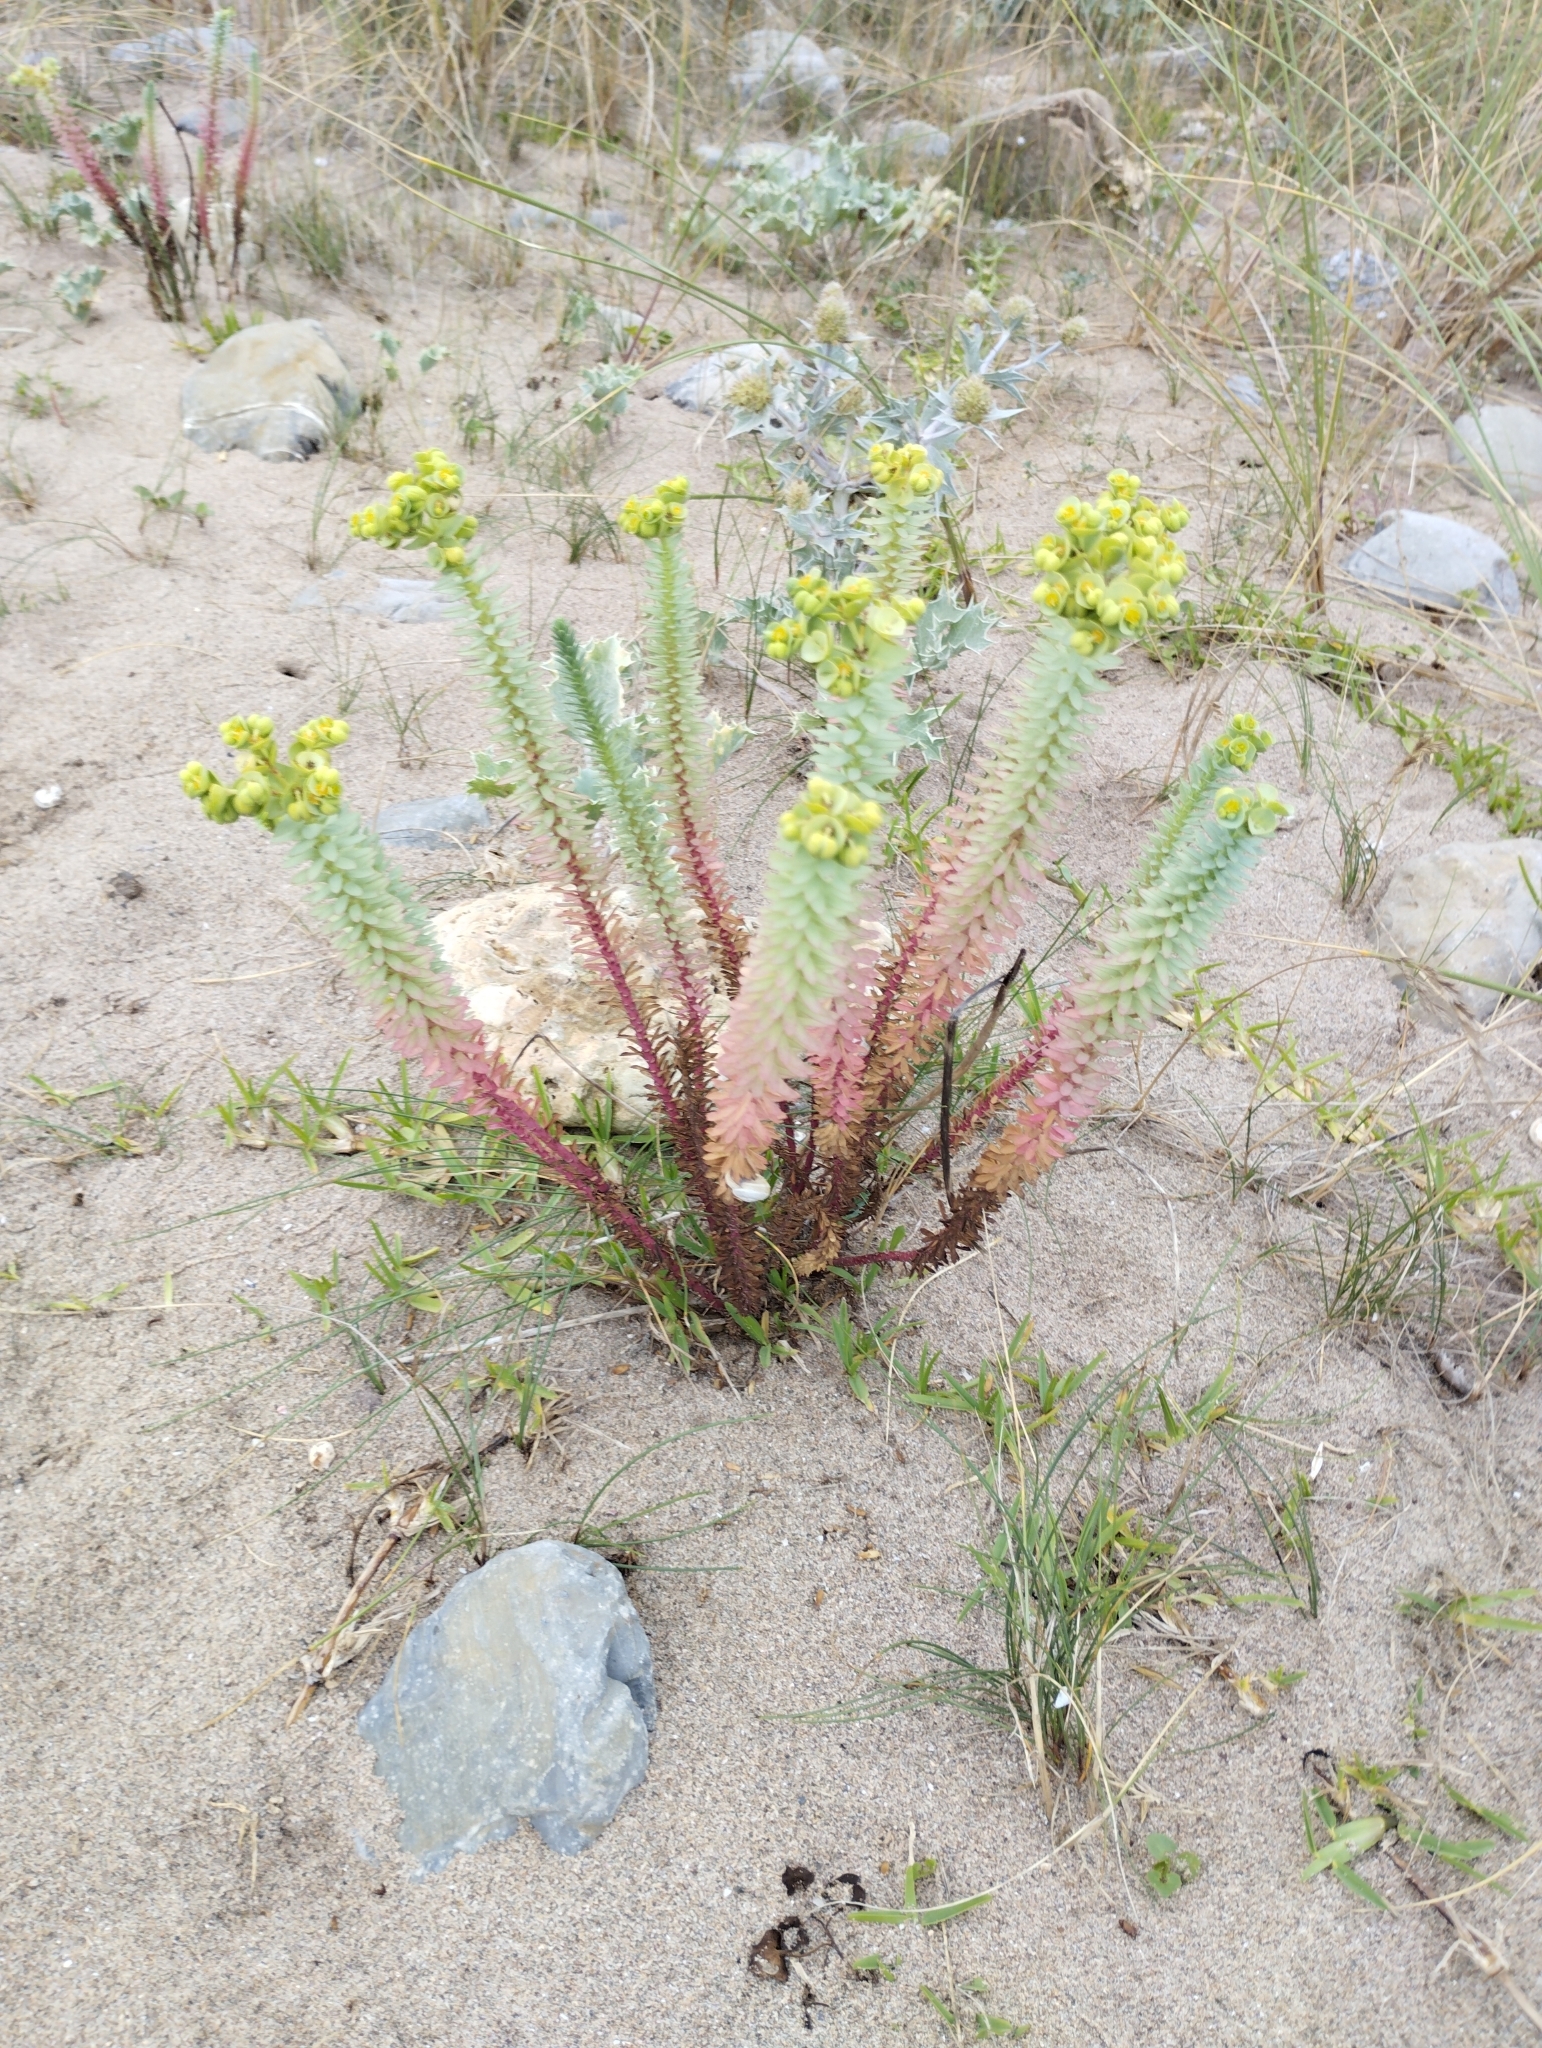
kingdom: Plantae
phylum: Tracheophyta
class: Magnoliopsida
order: Malpighiales
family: Euphorbiaceae
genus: Euphorbia
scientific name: Euphorbia paralias
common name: Sea spurge
